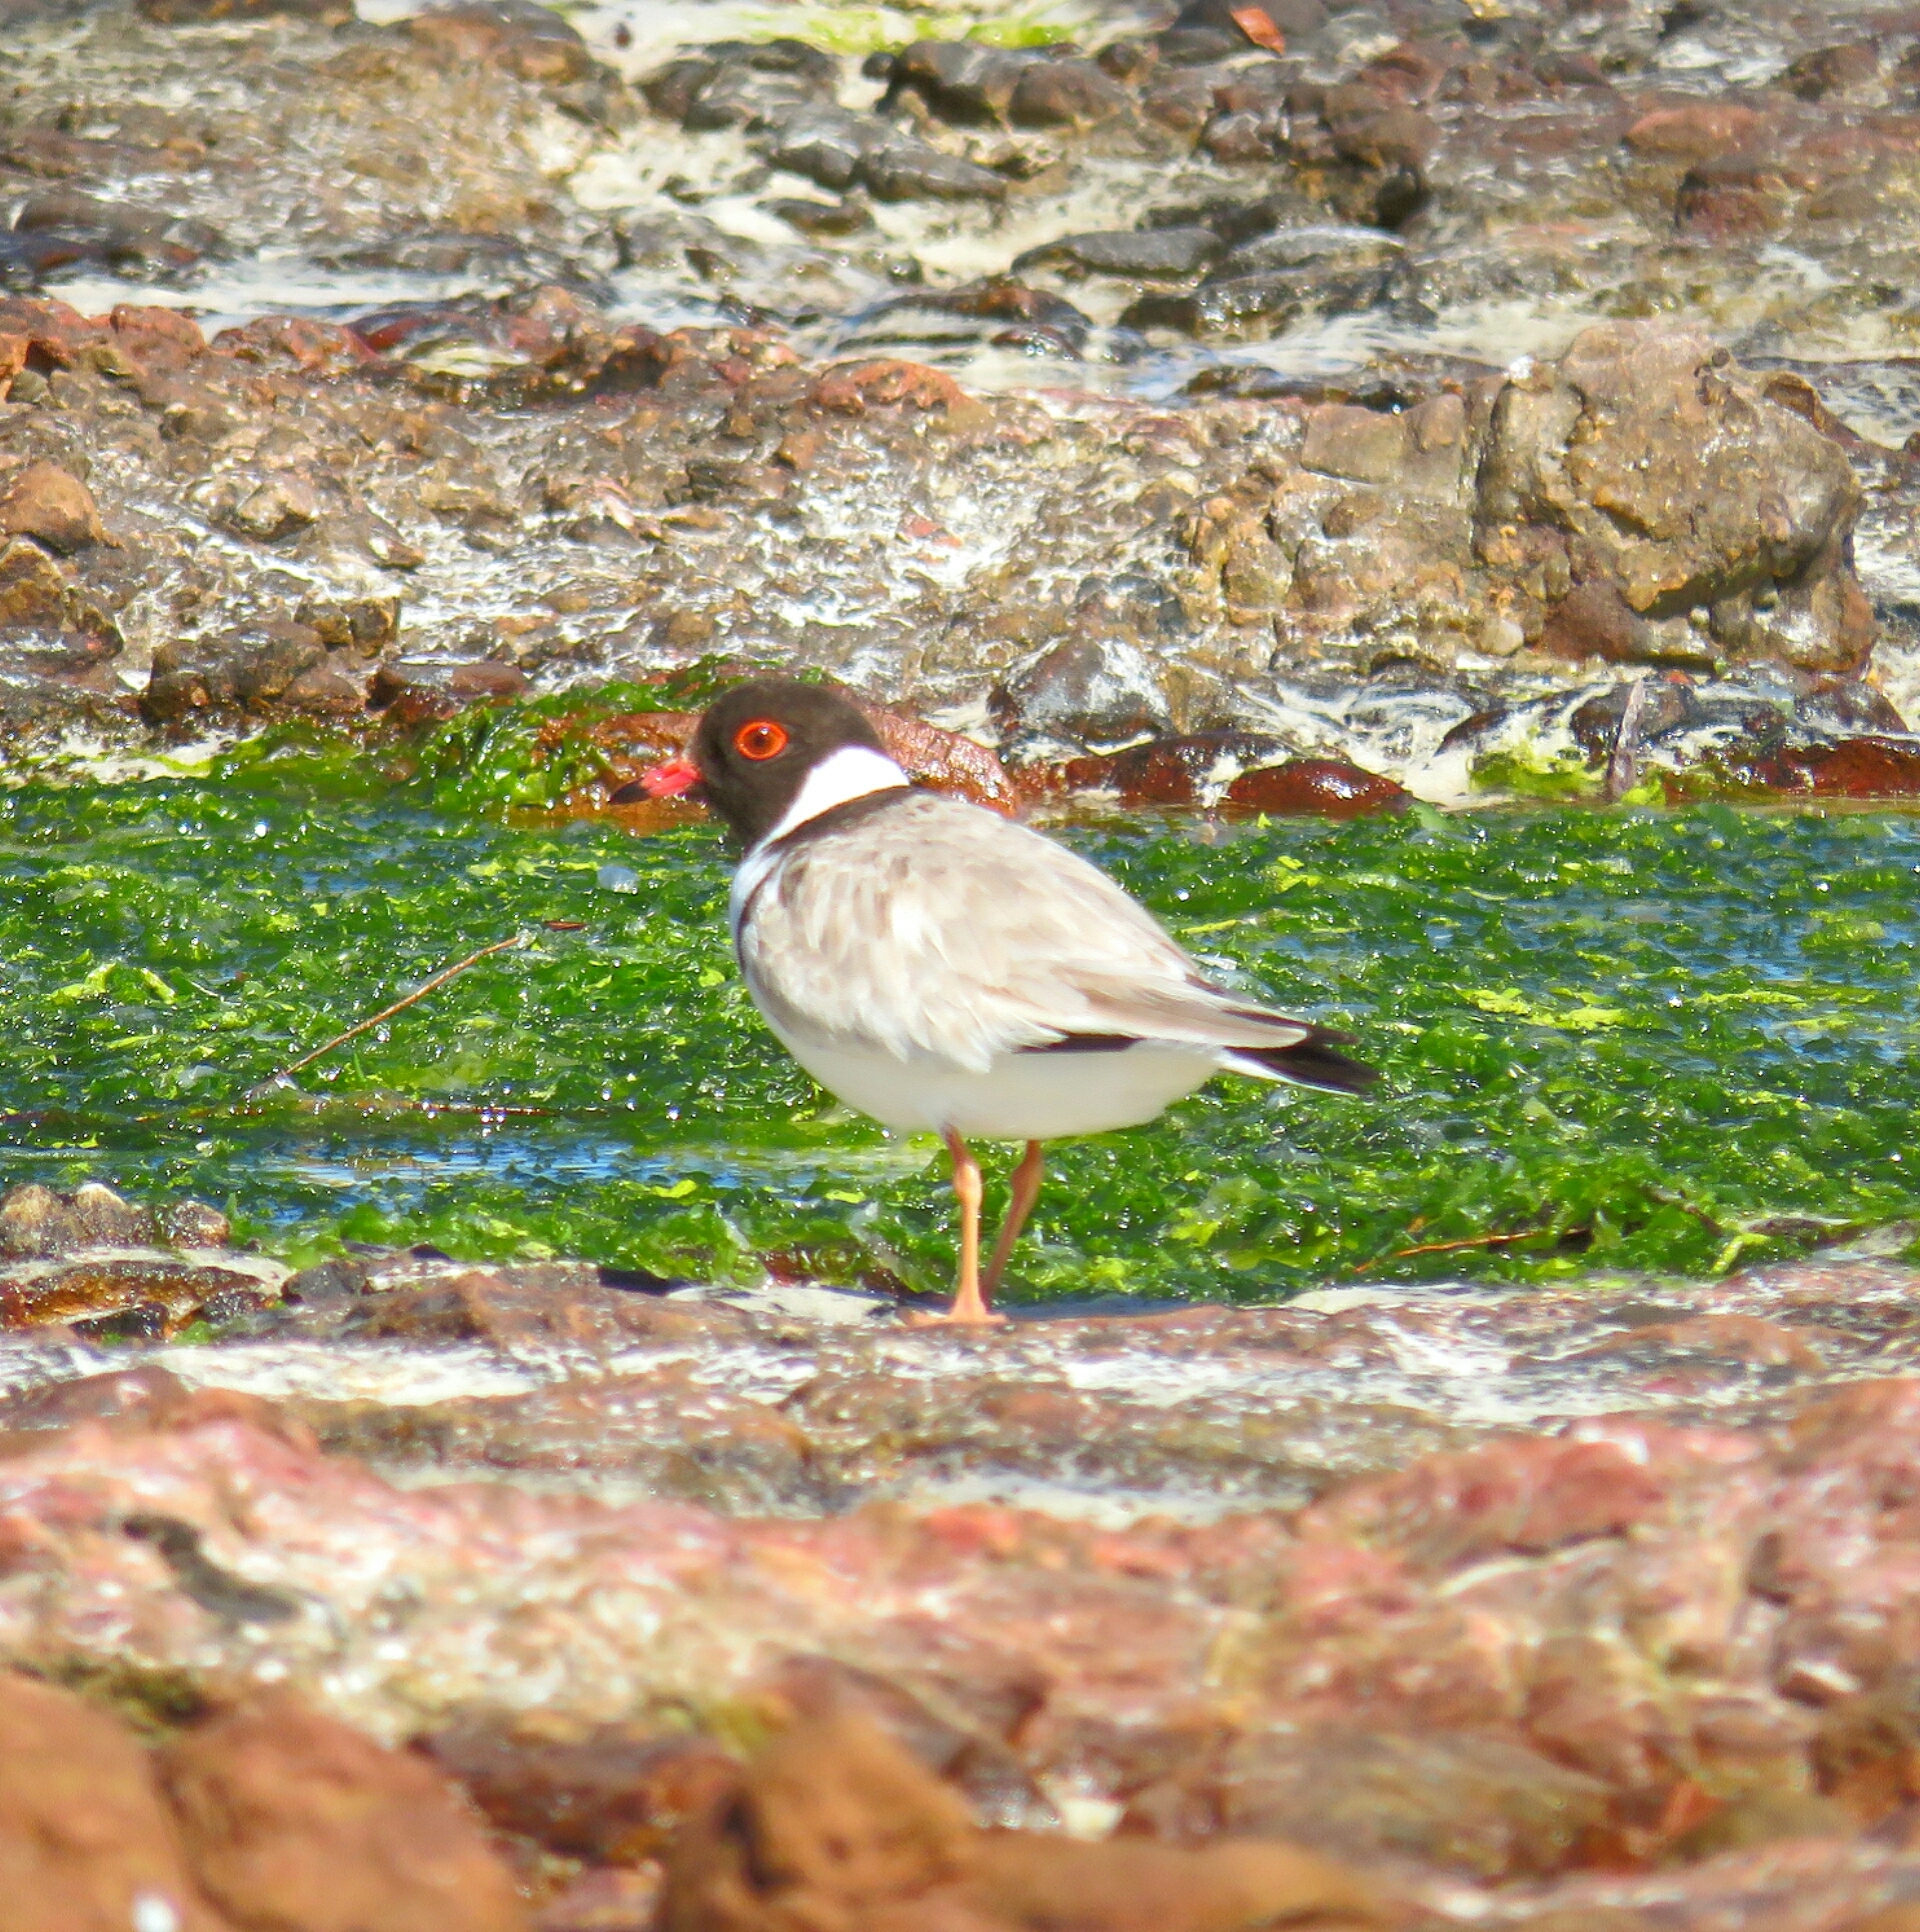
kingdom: Animalia
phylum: Chordata
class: Aves
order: Charadriiformes
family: Charadriidae
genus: Thinornis
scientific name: Thinornis cucullatus
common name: Hooded dotterel
